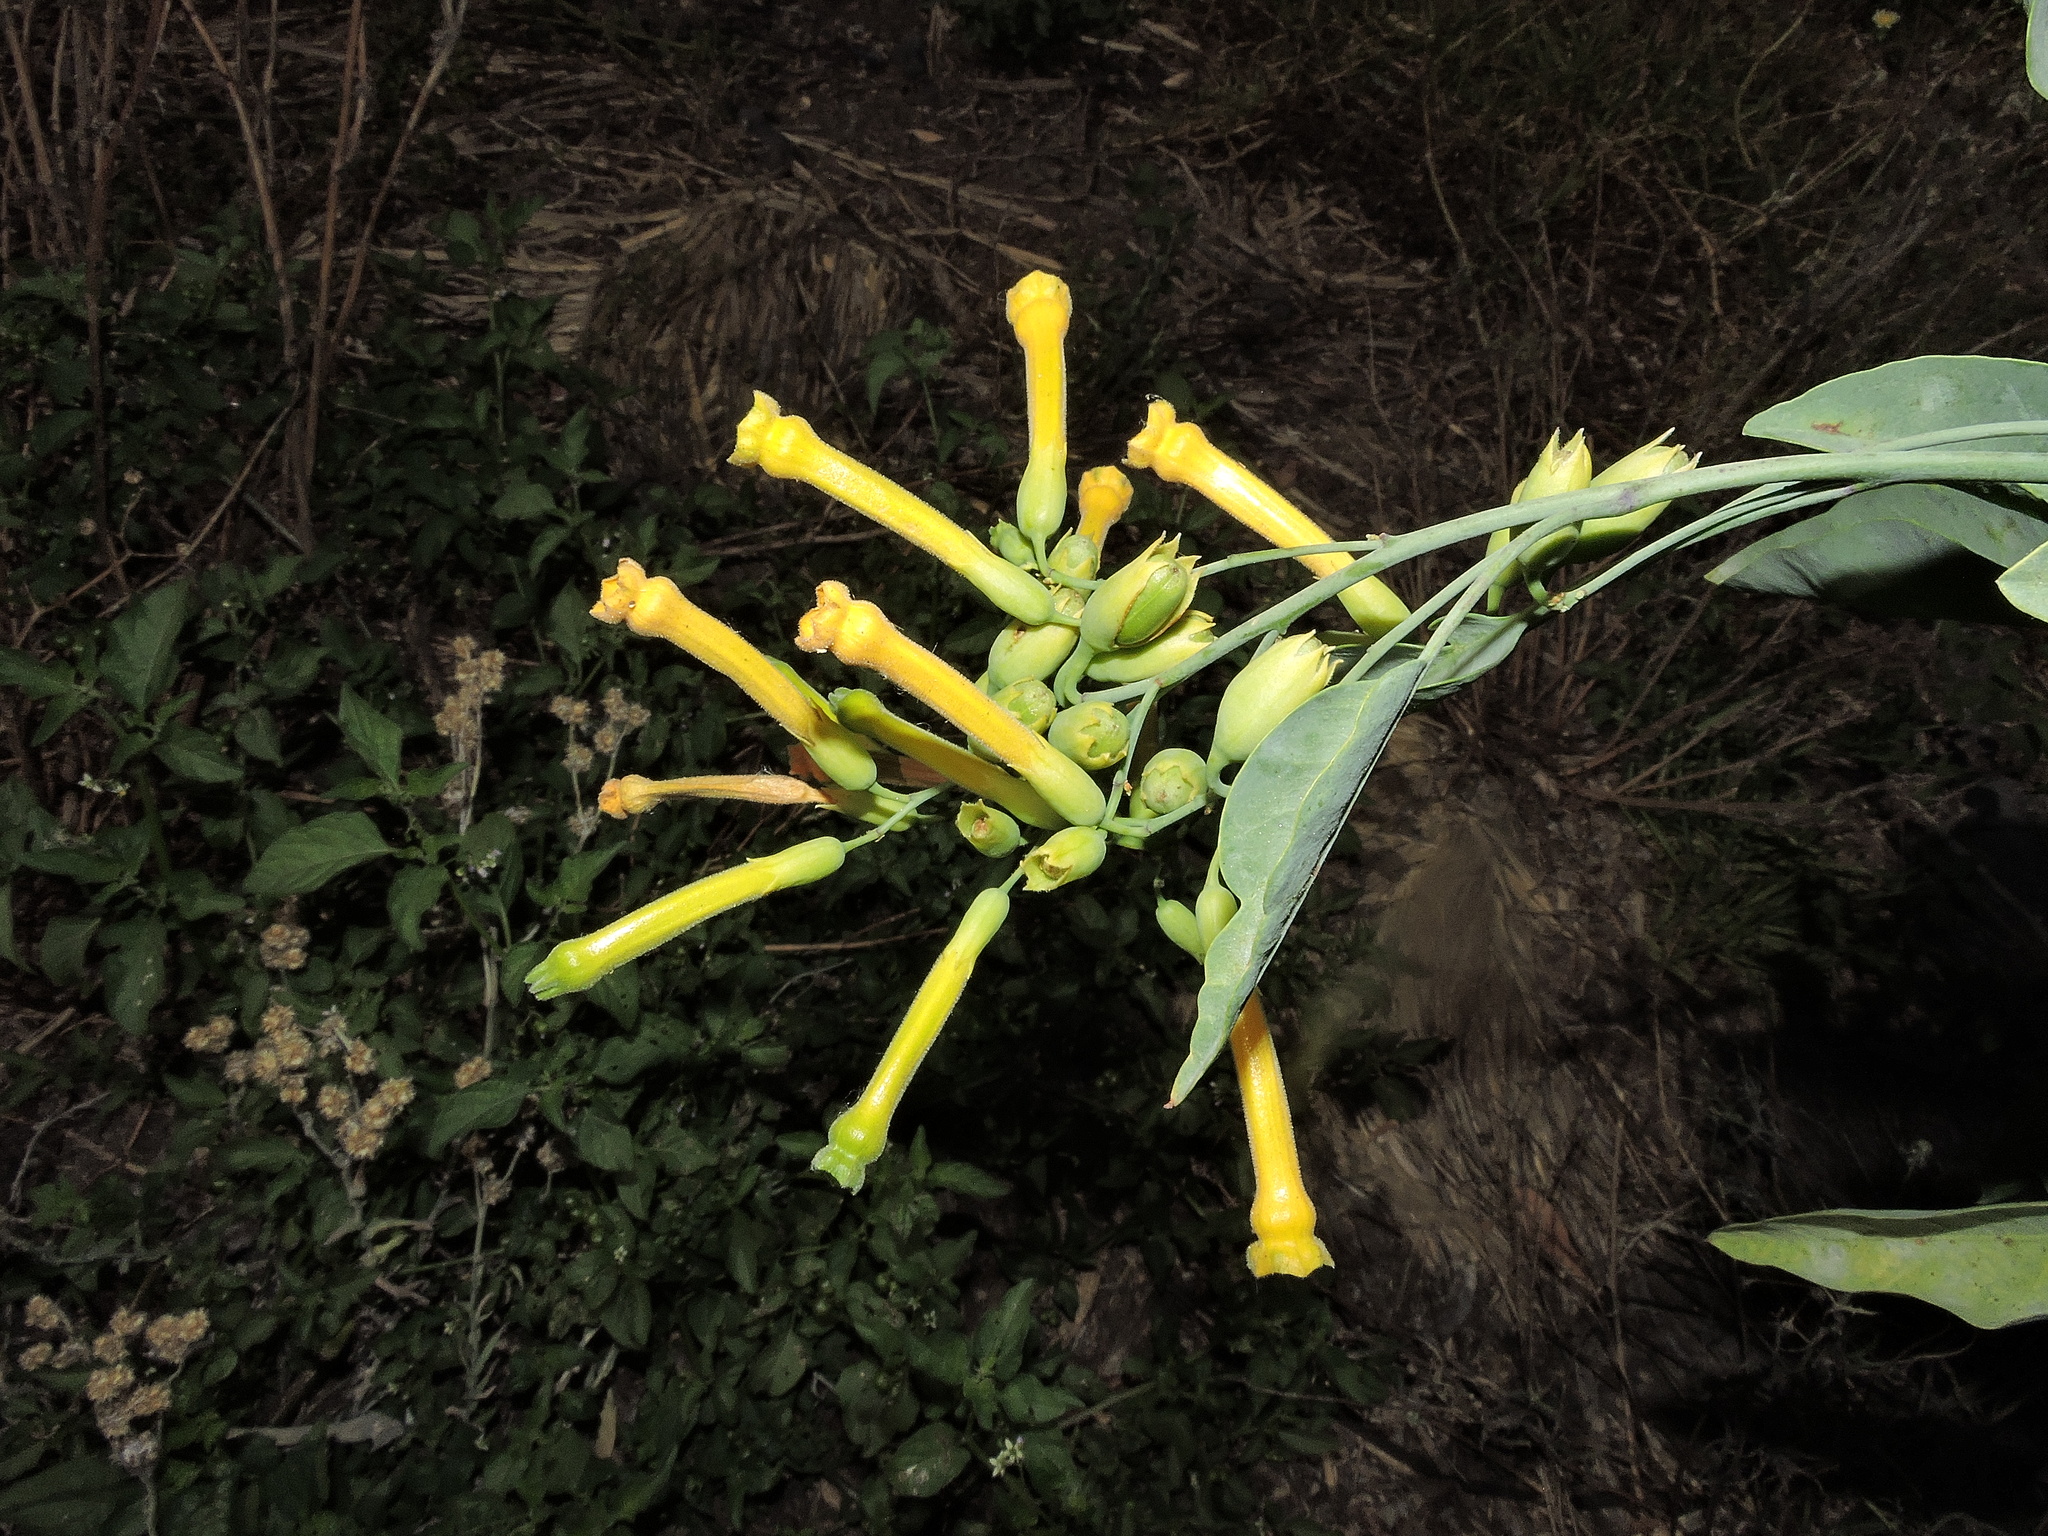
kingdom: Plantae
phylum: Tracheophyta
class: Magnoliopsida
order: Solanales
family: Solanaceae
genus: Nicotiana
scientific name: Nicotiana glauca
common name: Tree tobacco
